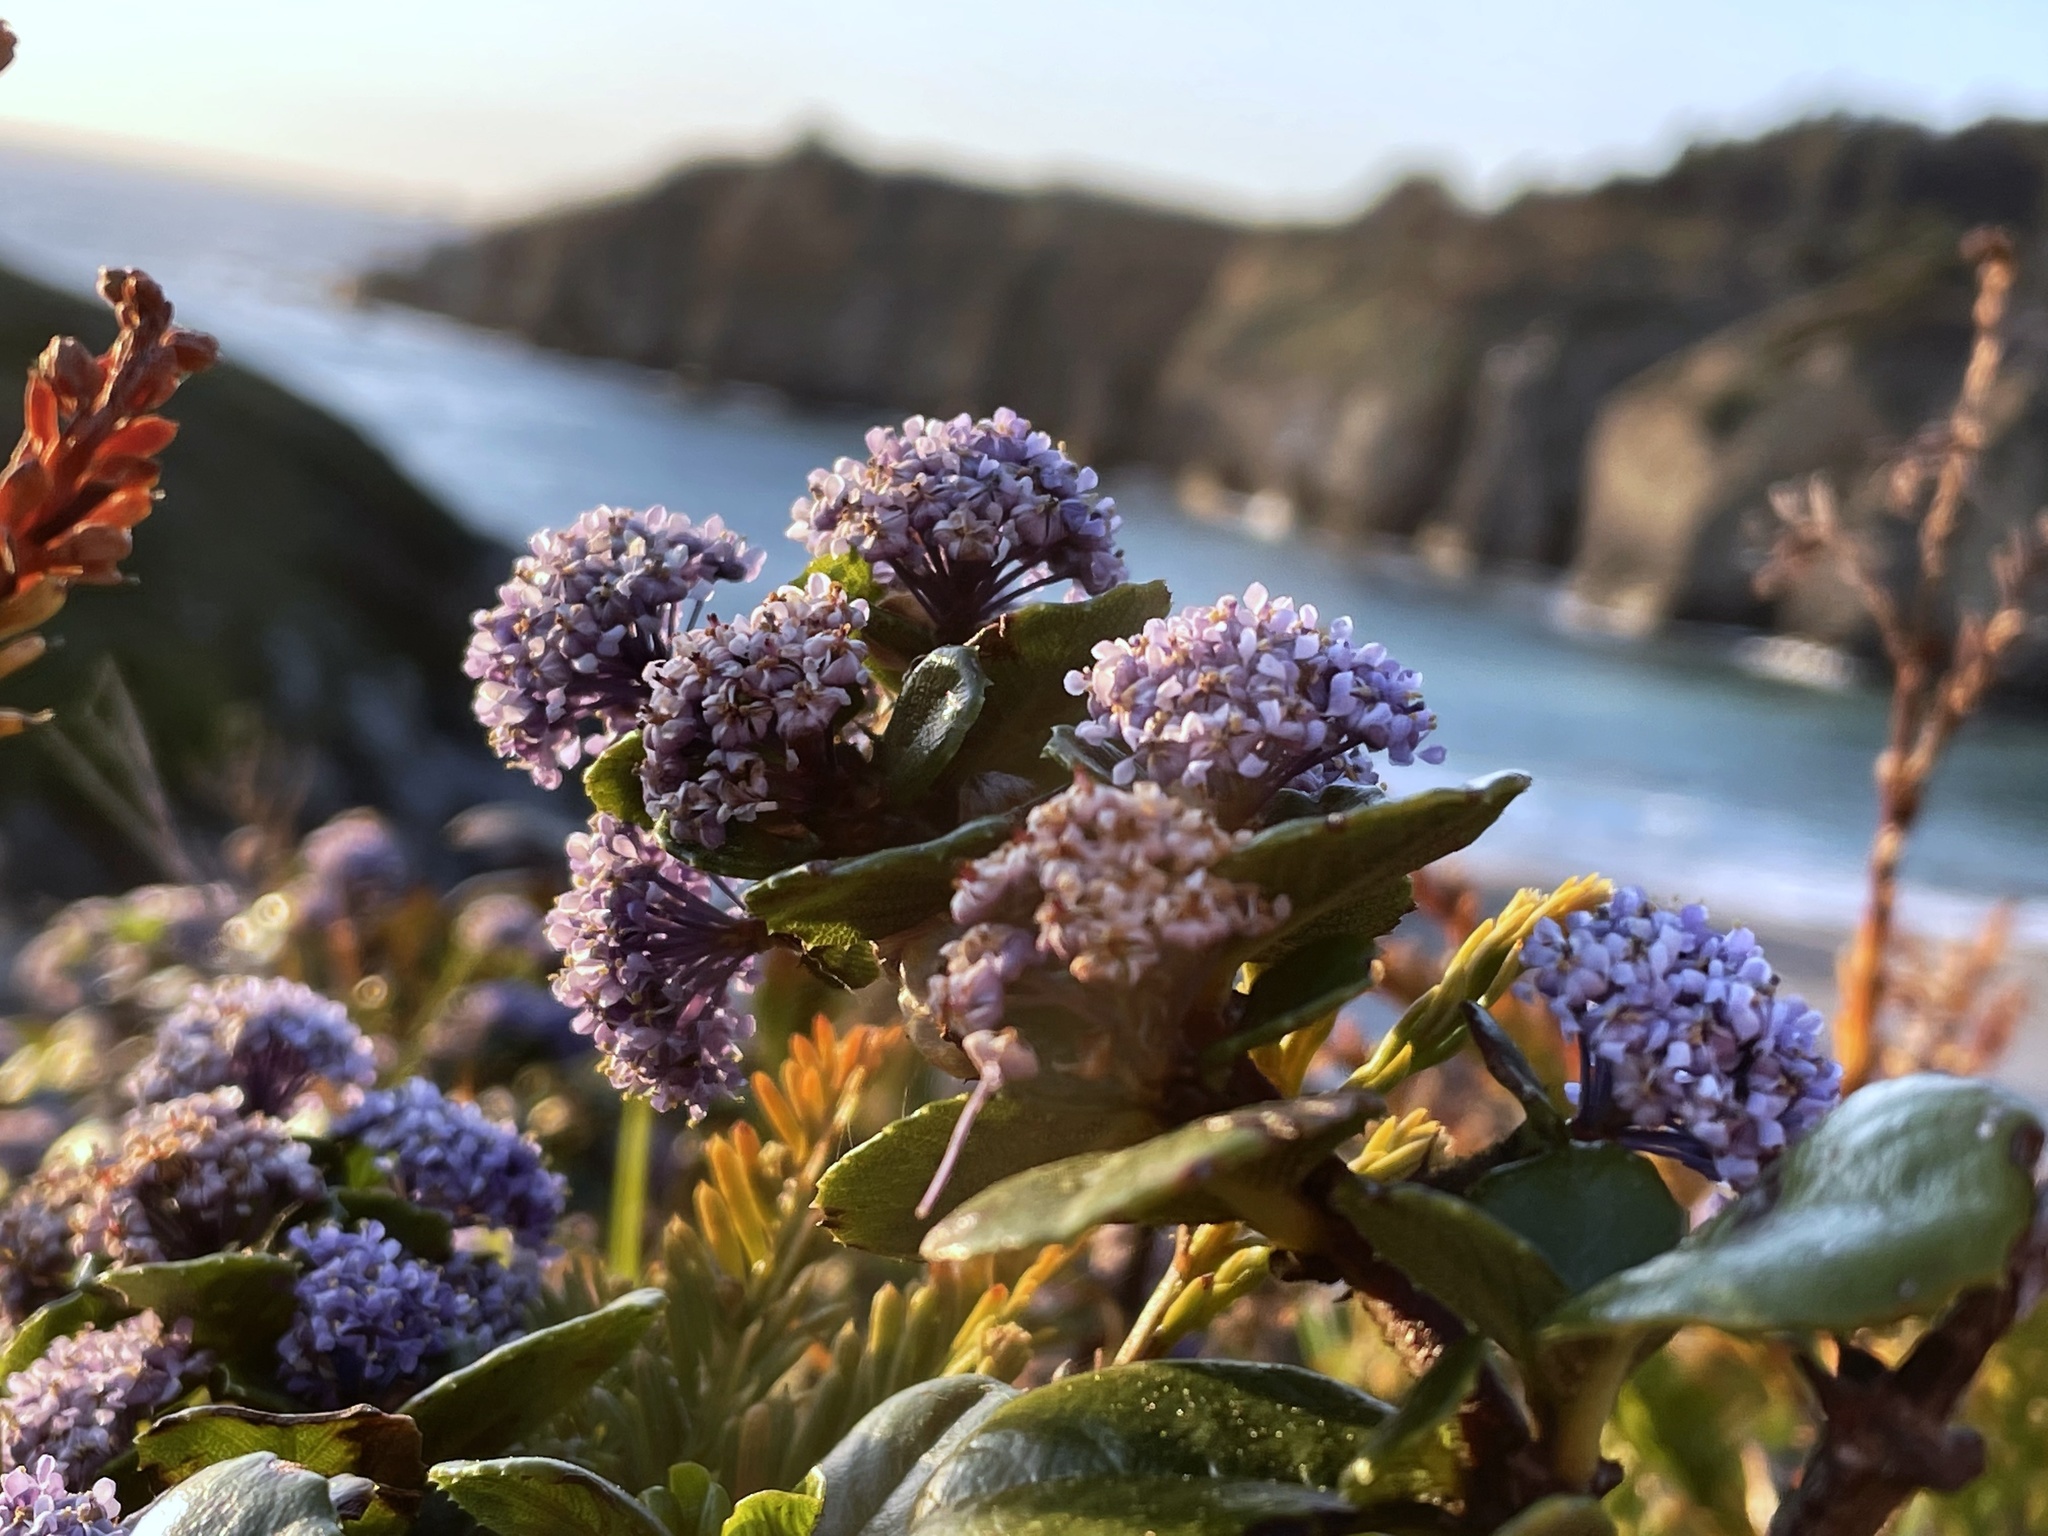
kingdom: Plantae
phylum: Tracheophyta
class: Magnoliopsida
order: Rosales
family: Rhamnaceae
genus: Ceanothus
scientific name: Ceanothus gloriosus
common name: Point reyes ceanothus
